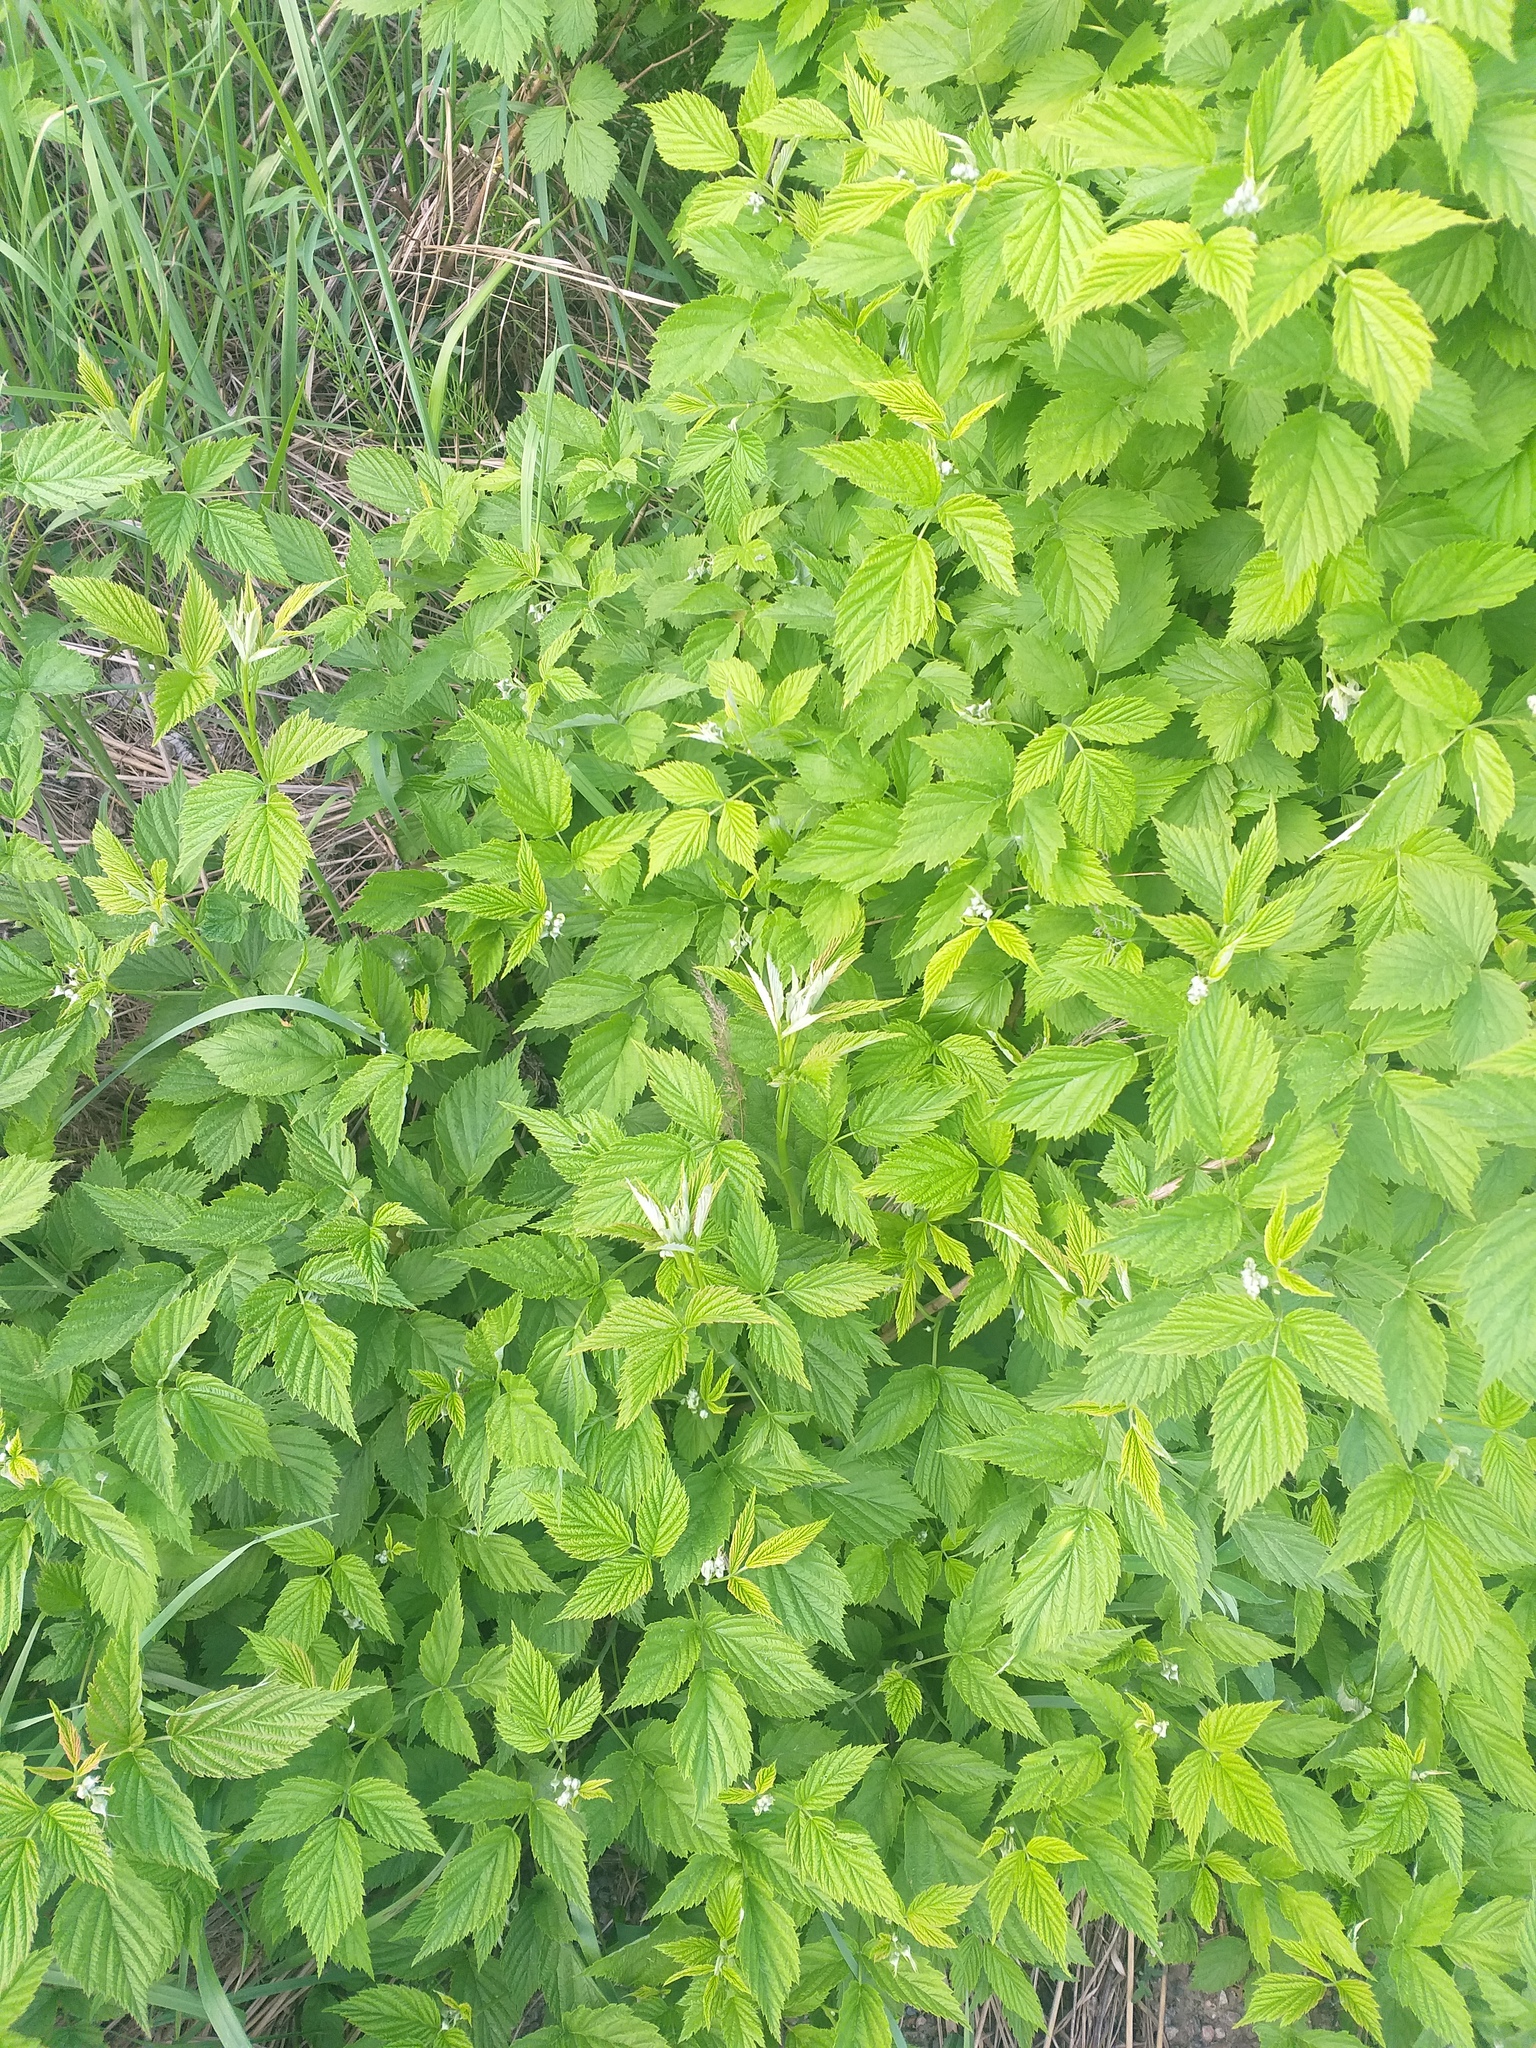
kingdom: Plantae
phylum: Tracheophyta
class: Magnoliopsida
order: Rosales
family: Rosaceae
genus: Rubus
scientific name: Rubus idaeus
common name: Raspberry
